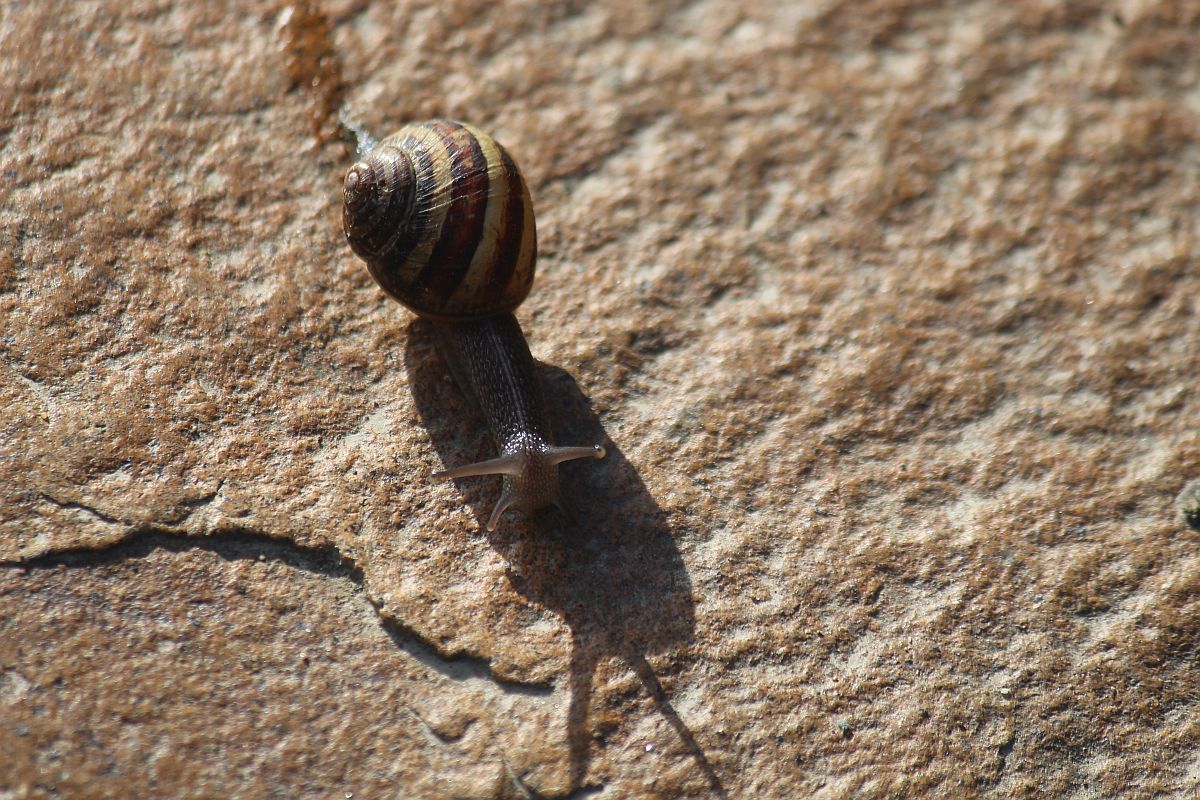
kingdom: Animalia
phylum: Mollusca
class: Gastropoda
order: Stylommatophora
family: Helicidae
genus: Cornu
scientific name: Cornu aspersum
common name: Brown garden snail
